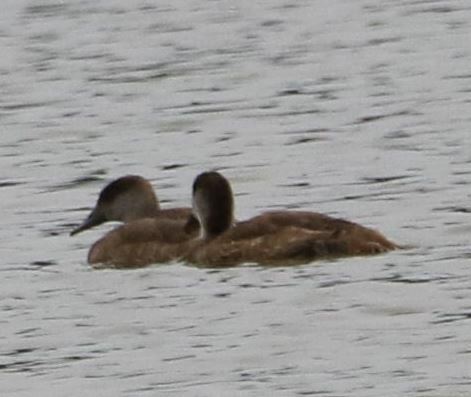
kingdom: Animalia
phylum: Chordata
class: Aves
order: Anseriformes
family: Anatidae
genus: Netta
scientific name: Netta rufina
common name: Red-crested pochard
